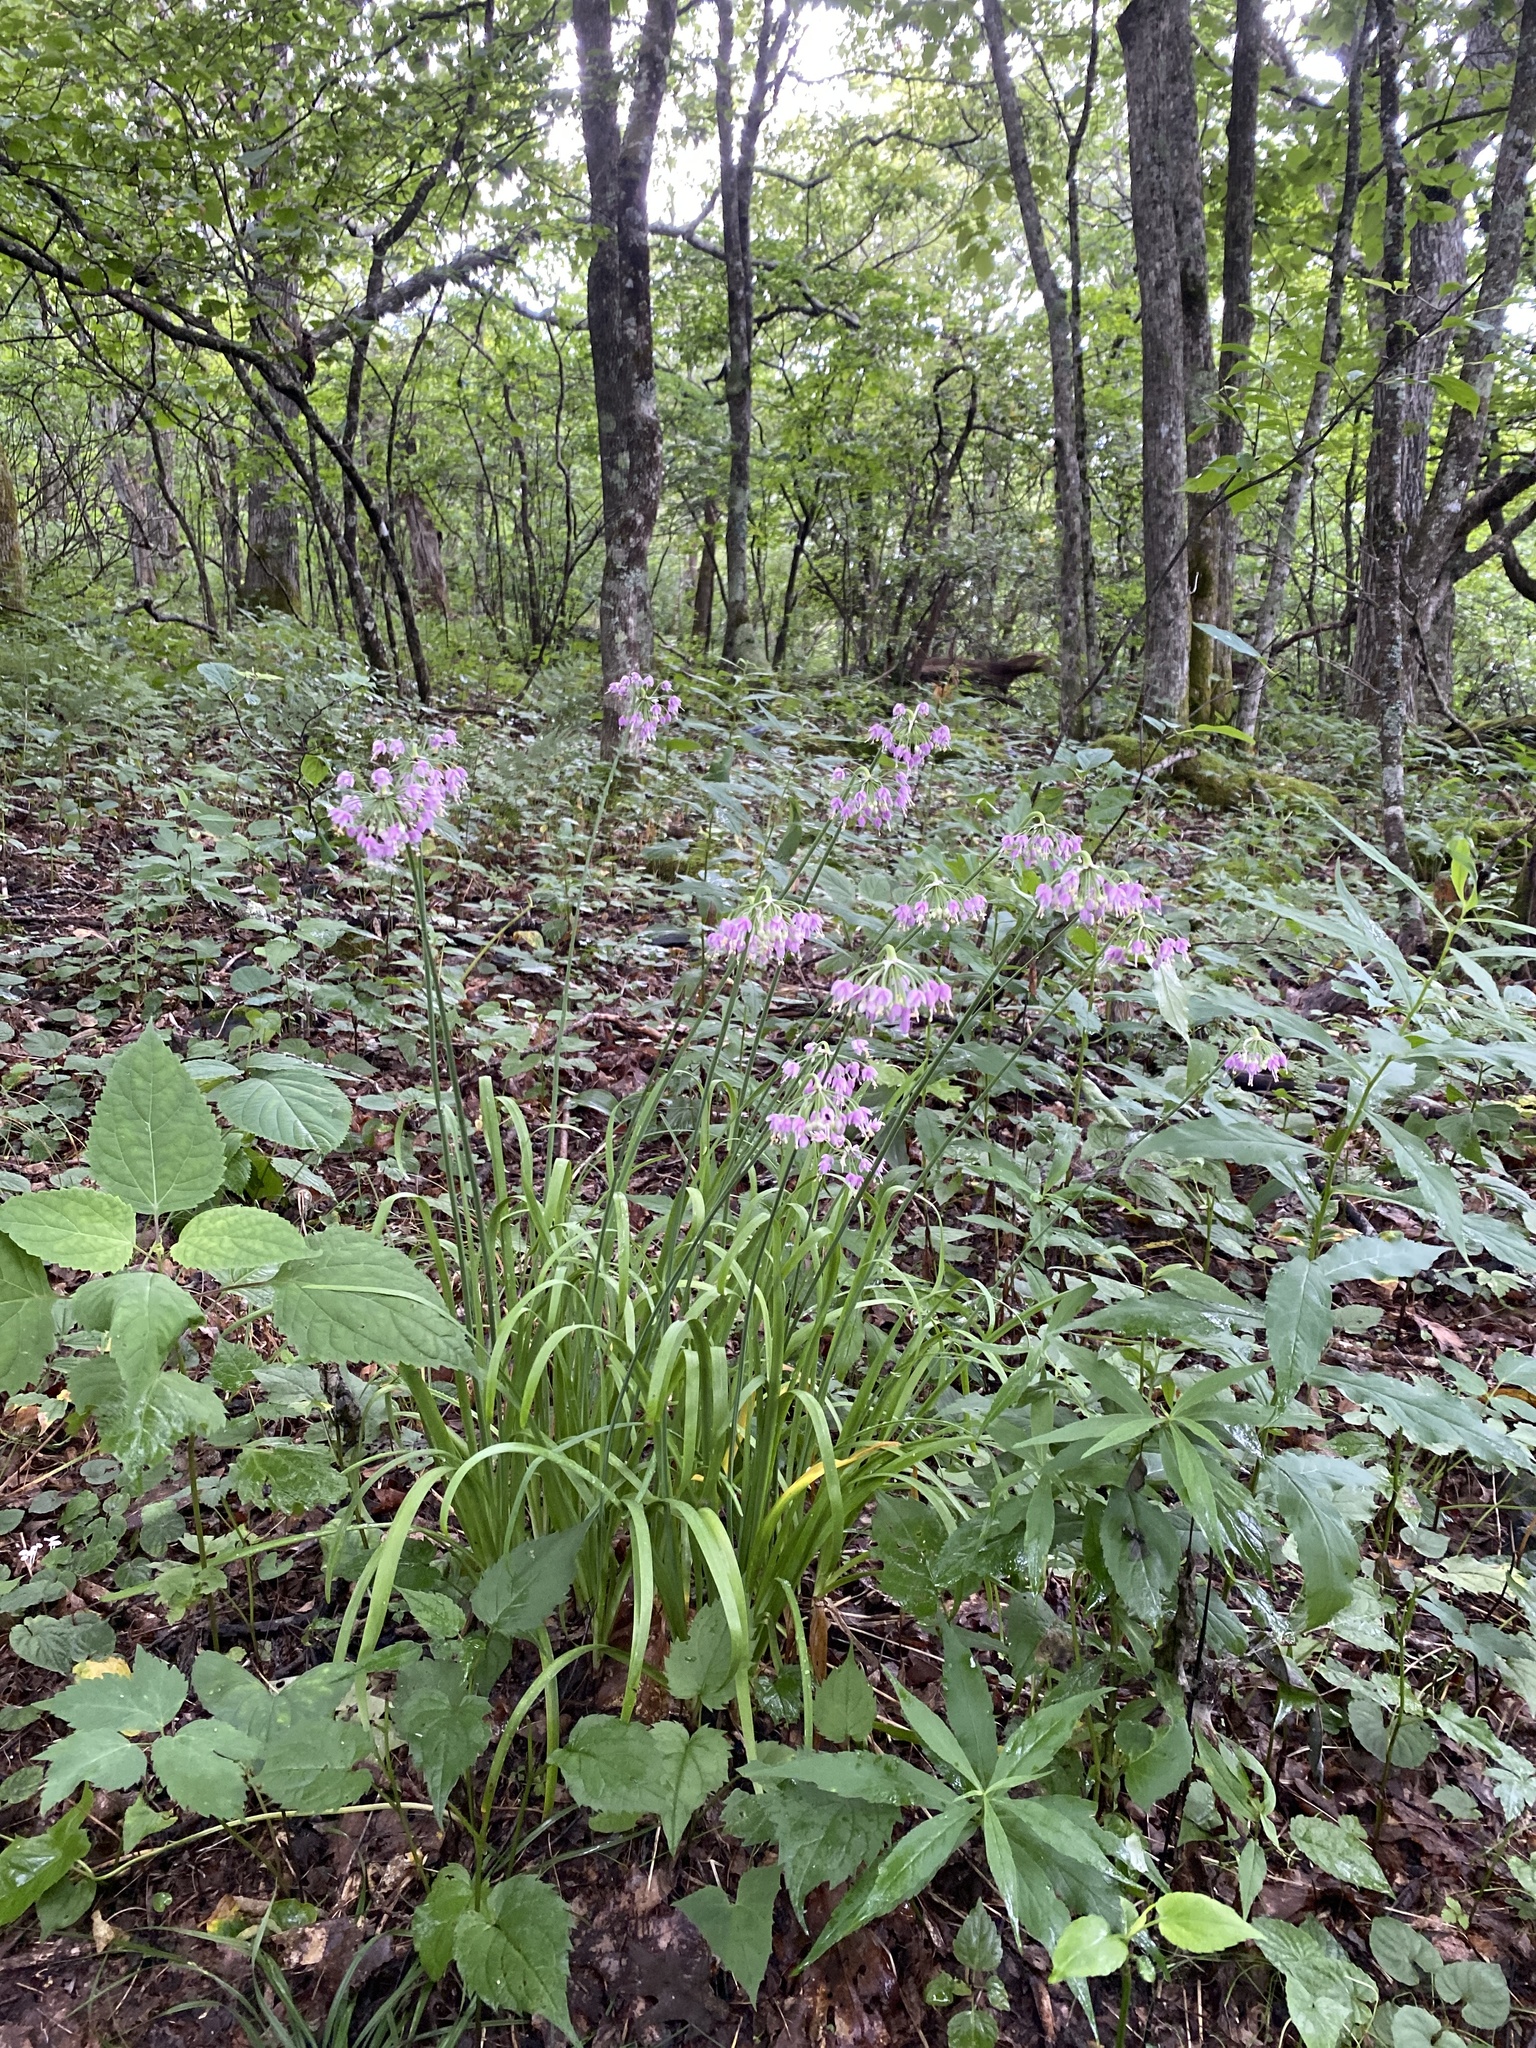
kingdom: Plantae
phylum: Tracheophyta
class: Liliopsida
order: Asparagales
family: Amaryllidaceae
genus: Allium
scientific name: Allium cernuum
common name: Nodding onion
